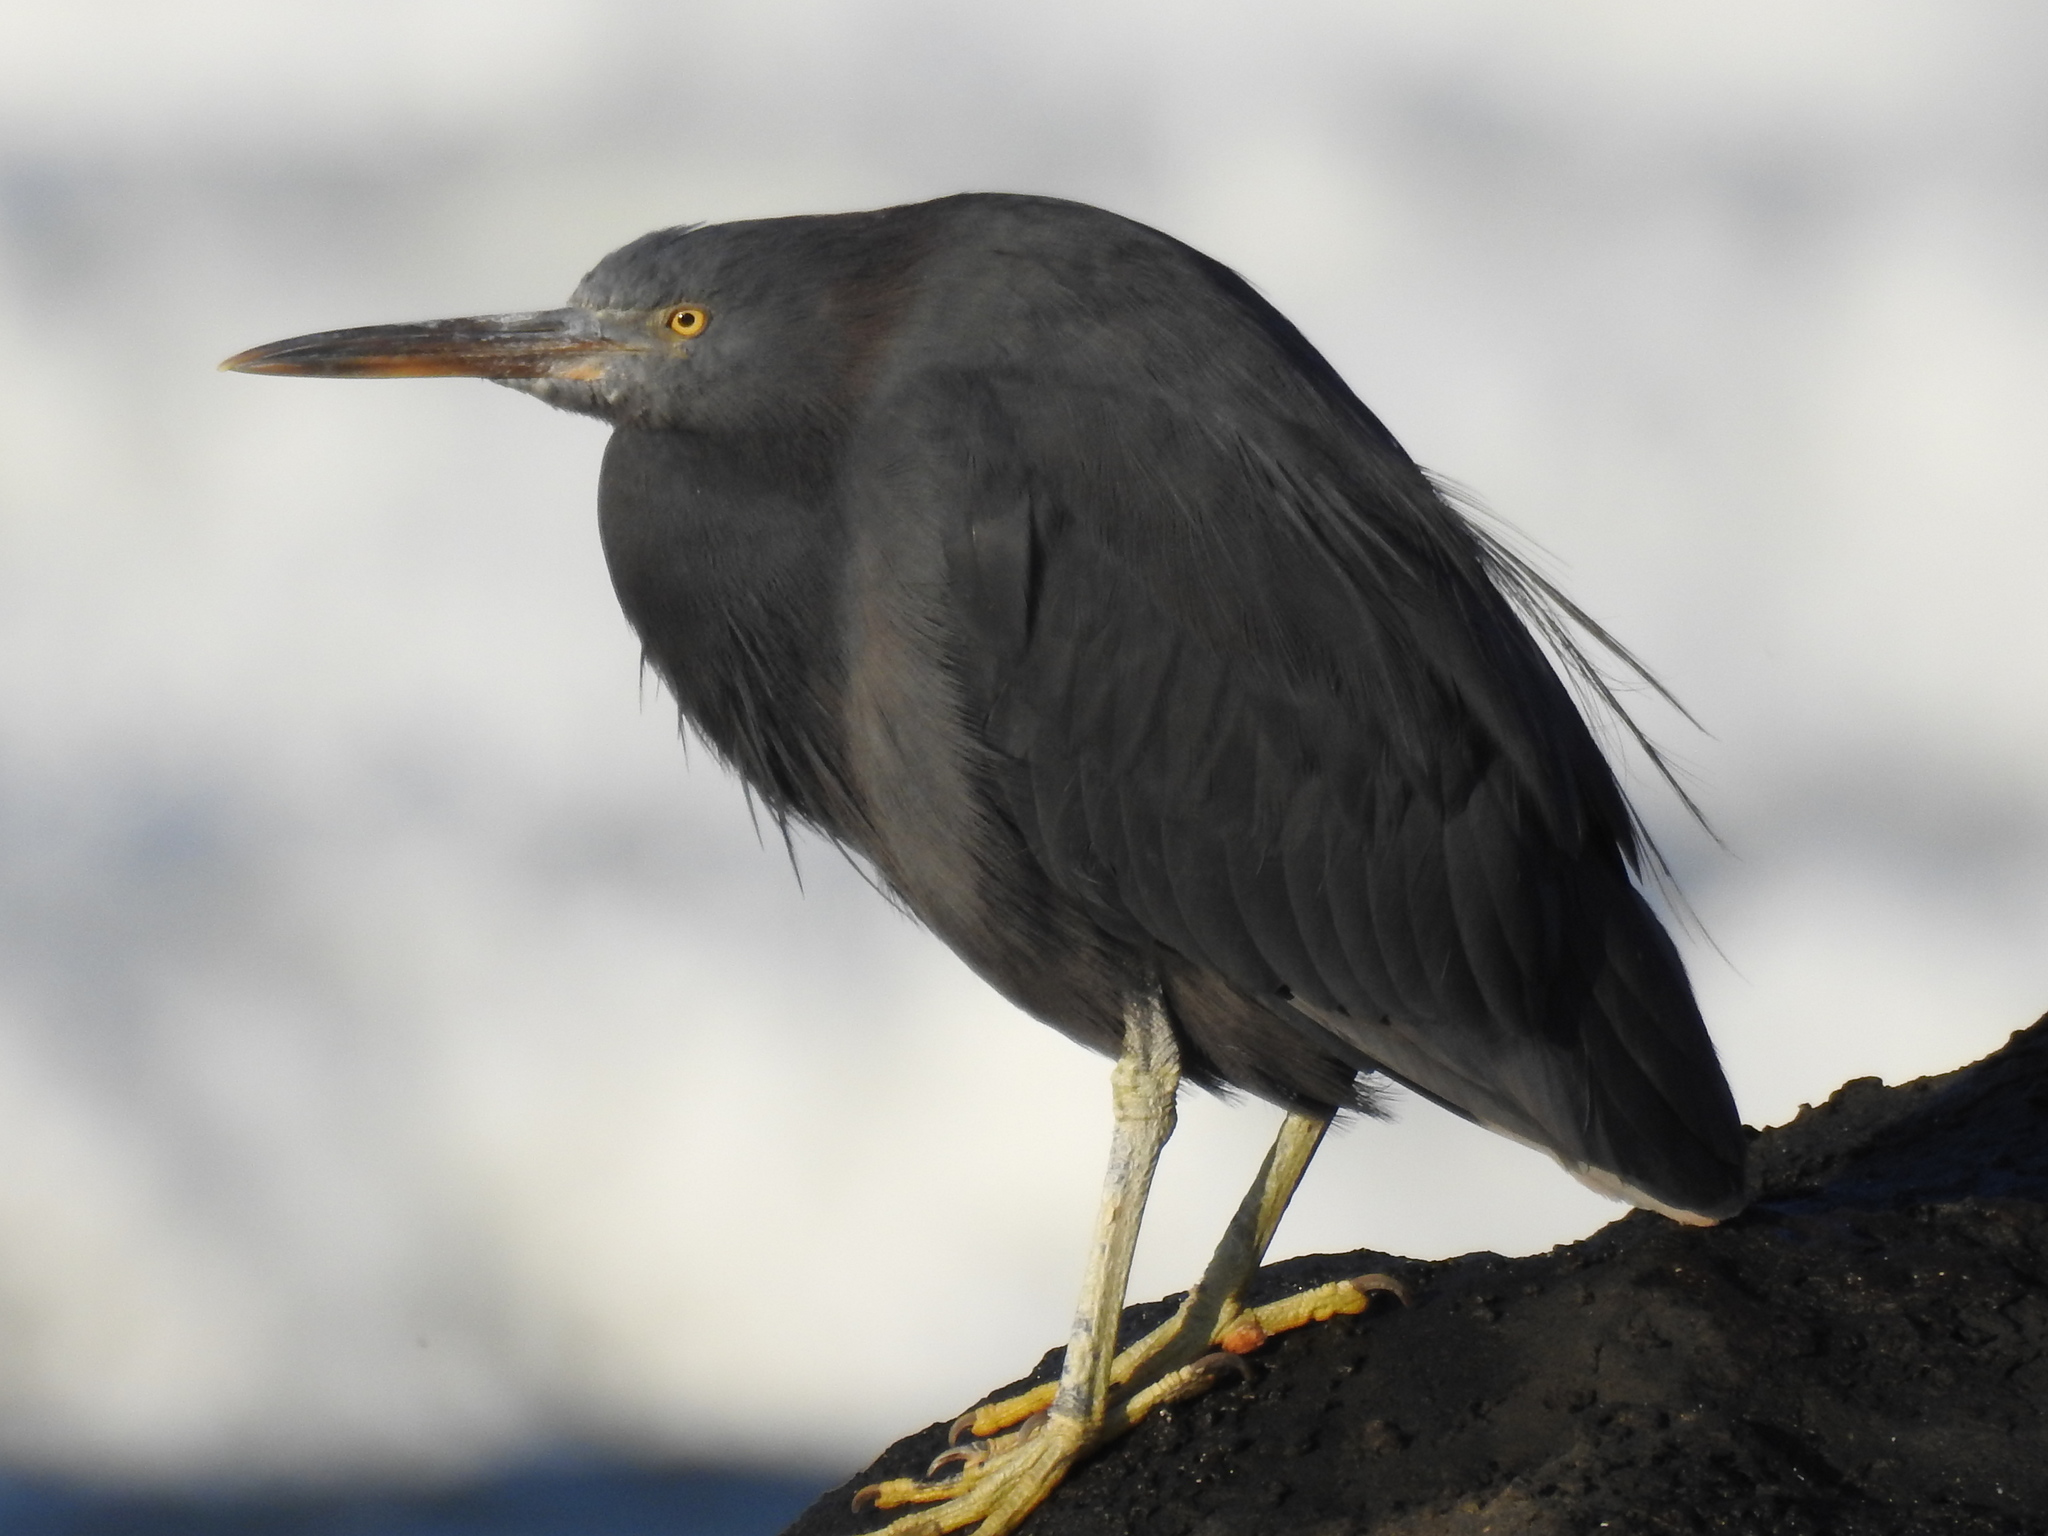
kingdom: Animalia
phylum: Chordata
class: Aves
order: Pelecaniformes
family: Ardeidae
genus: Egretta
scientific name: Egretta sacra
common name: Pacific reef heron
